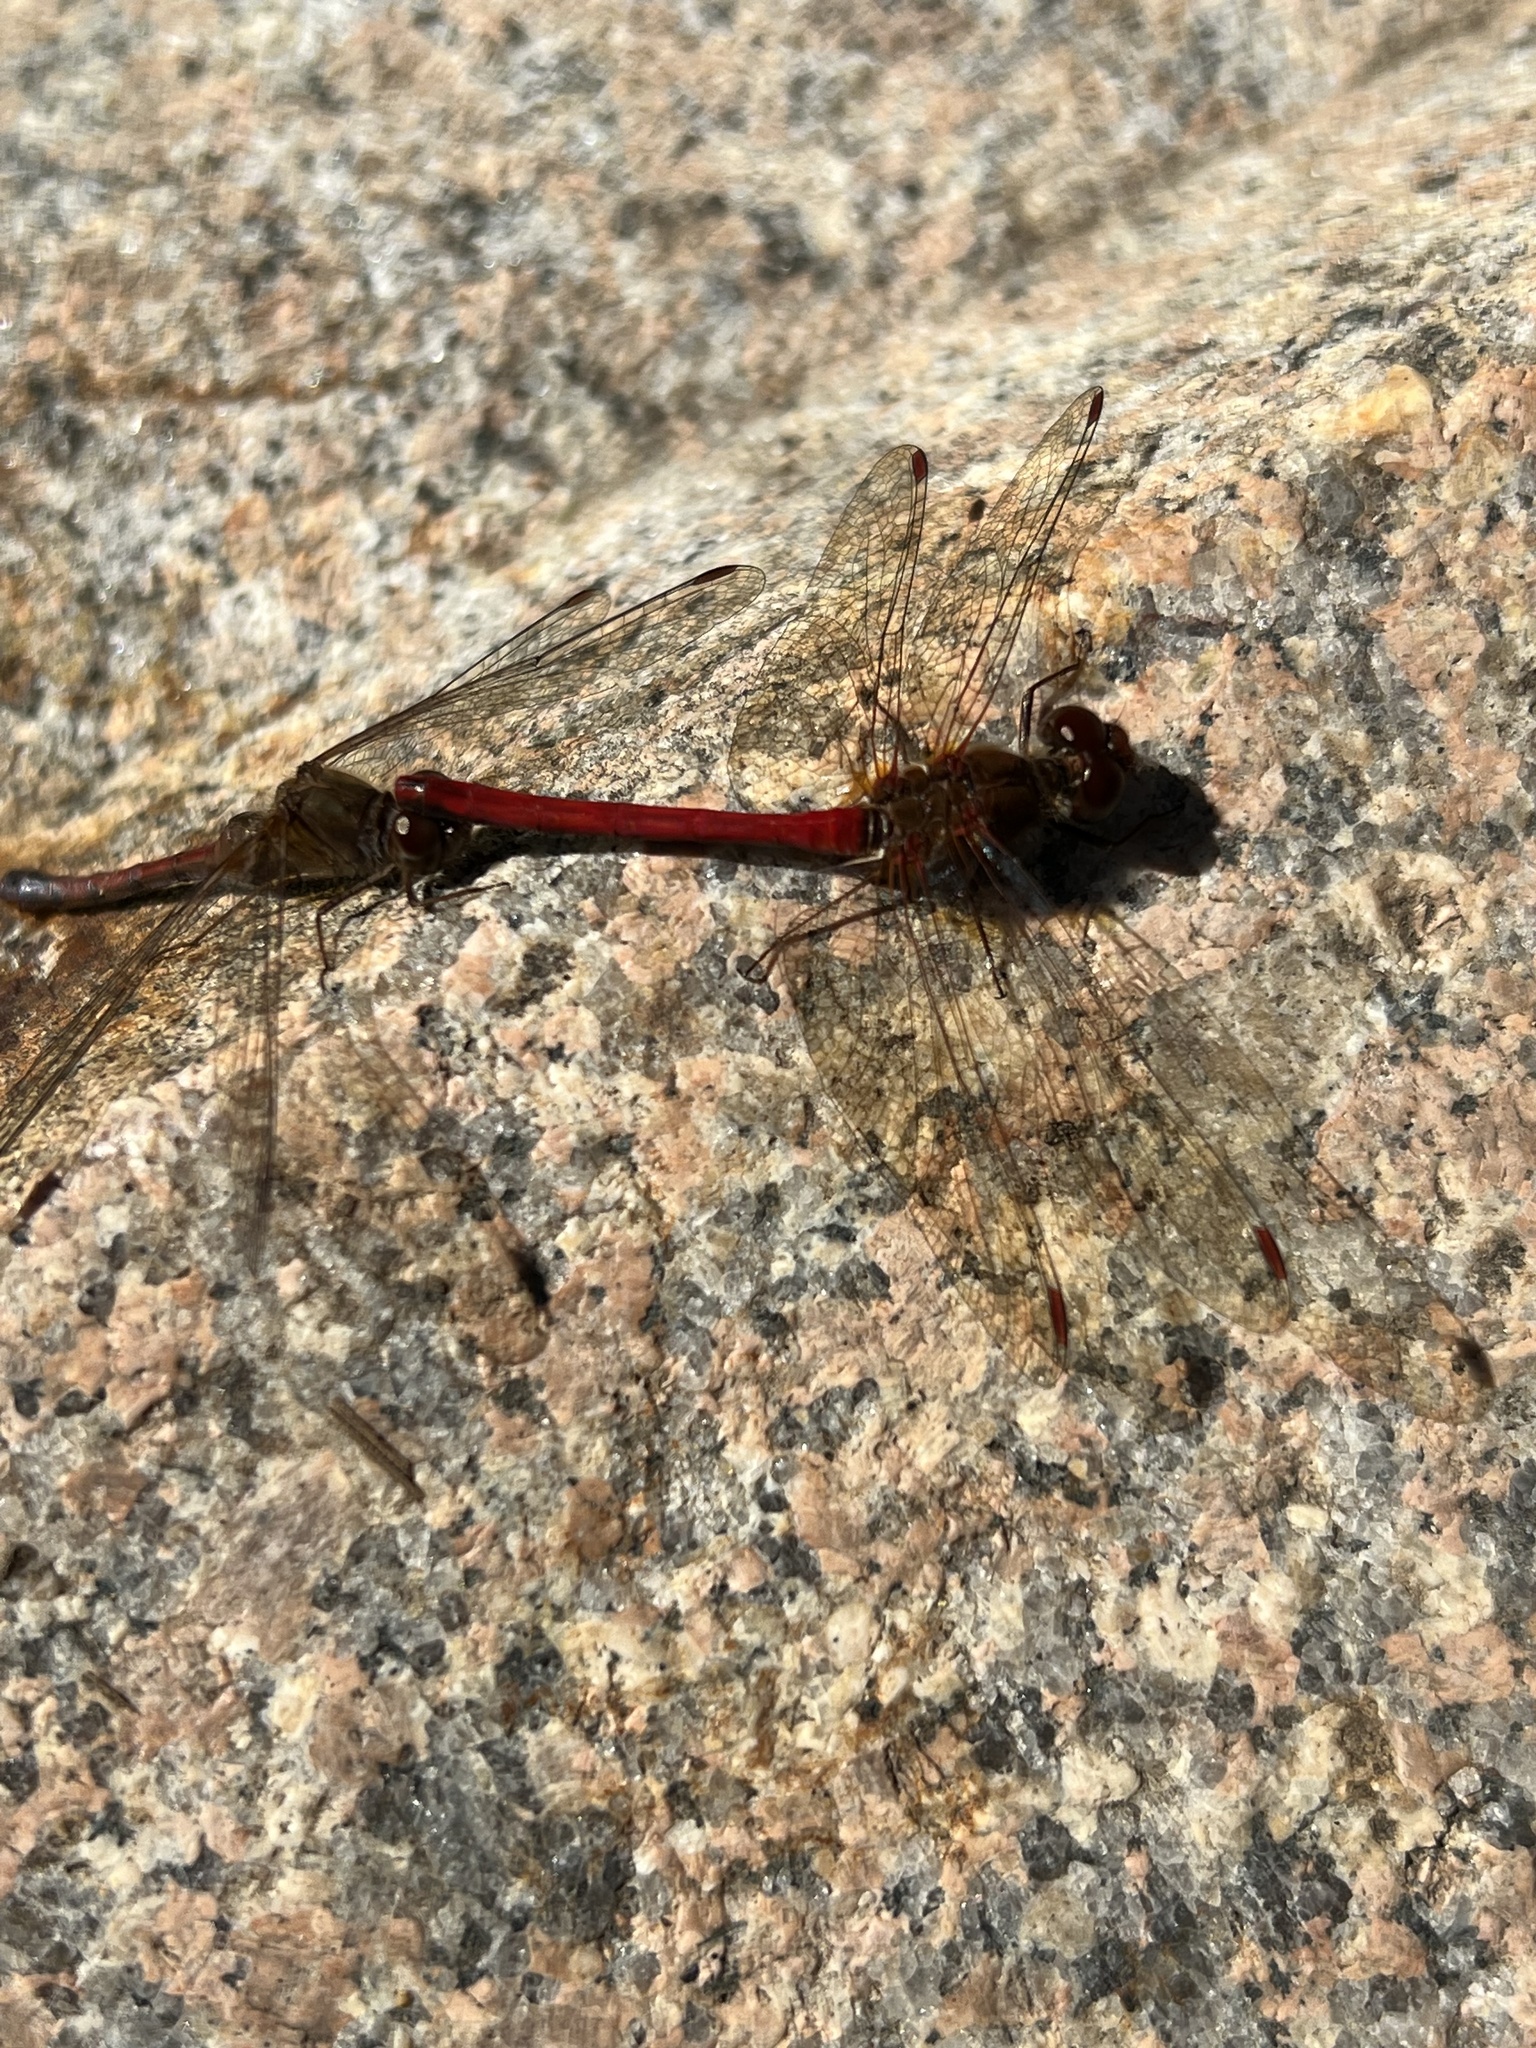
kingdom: Animalia
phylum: Arthropoda
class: Insecta
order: Odonata
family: Libellulidae
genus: Sympetrum
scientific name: Sympetrum vicinum
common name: Autumn meadowhawk
